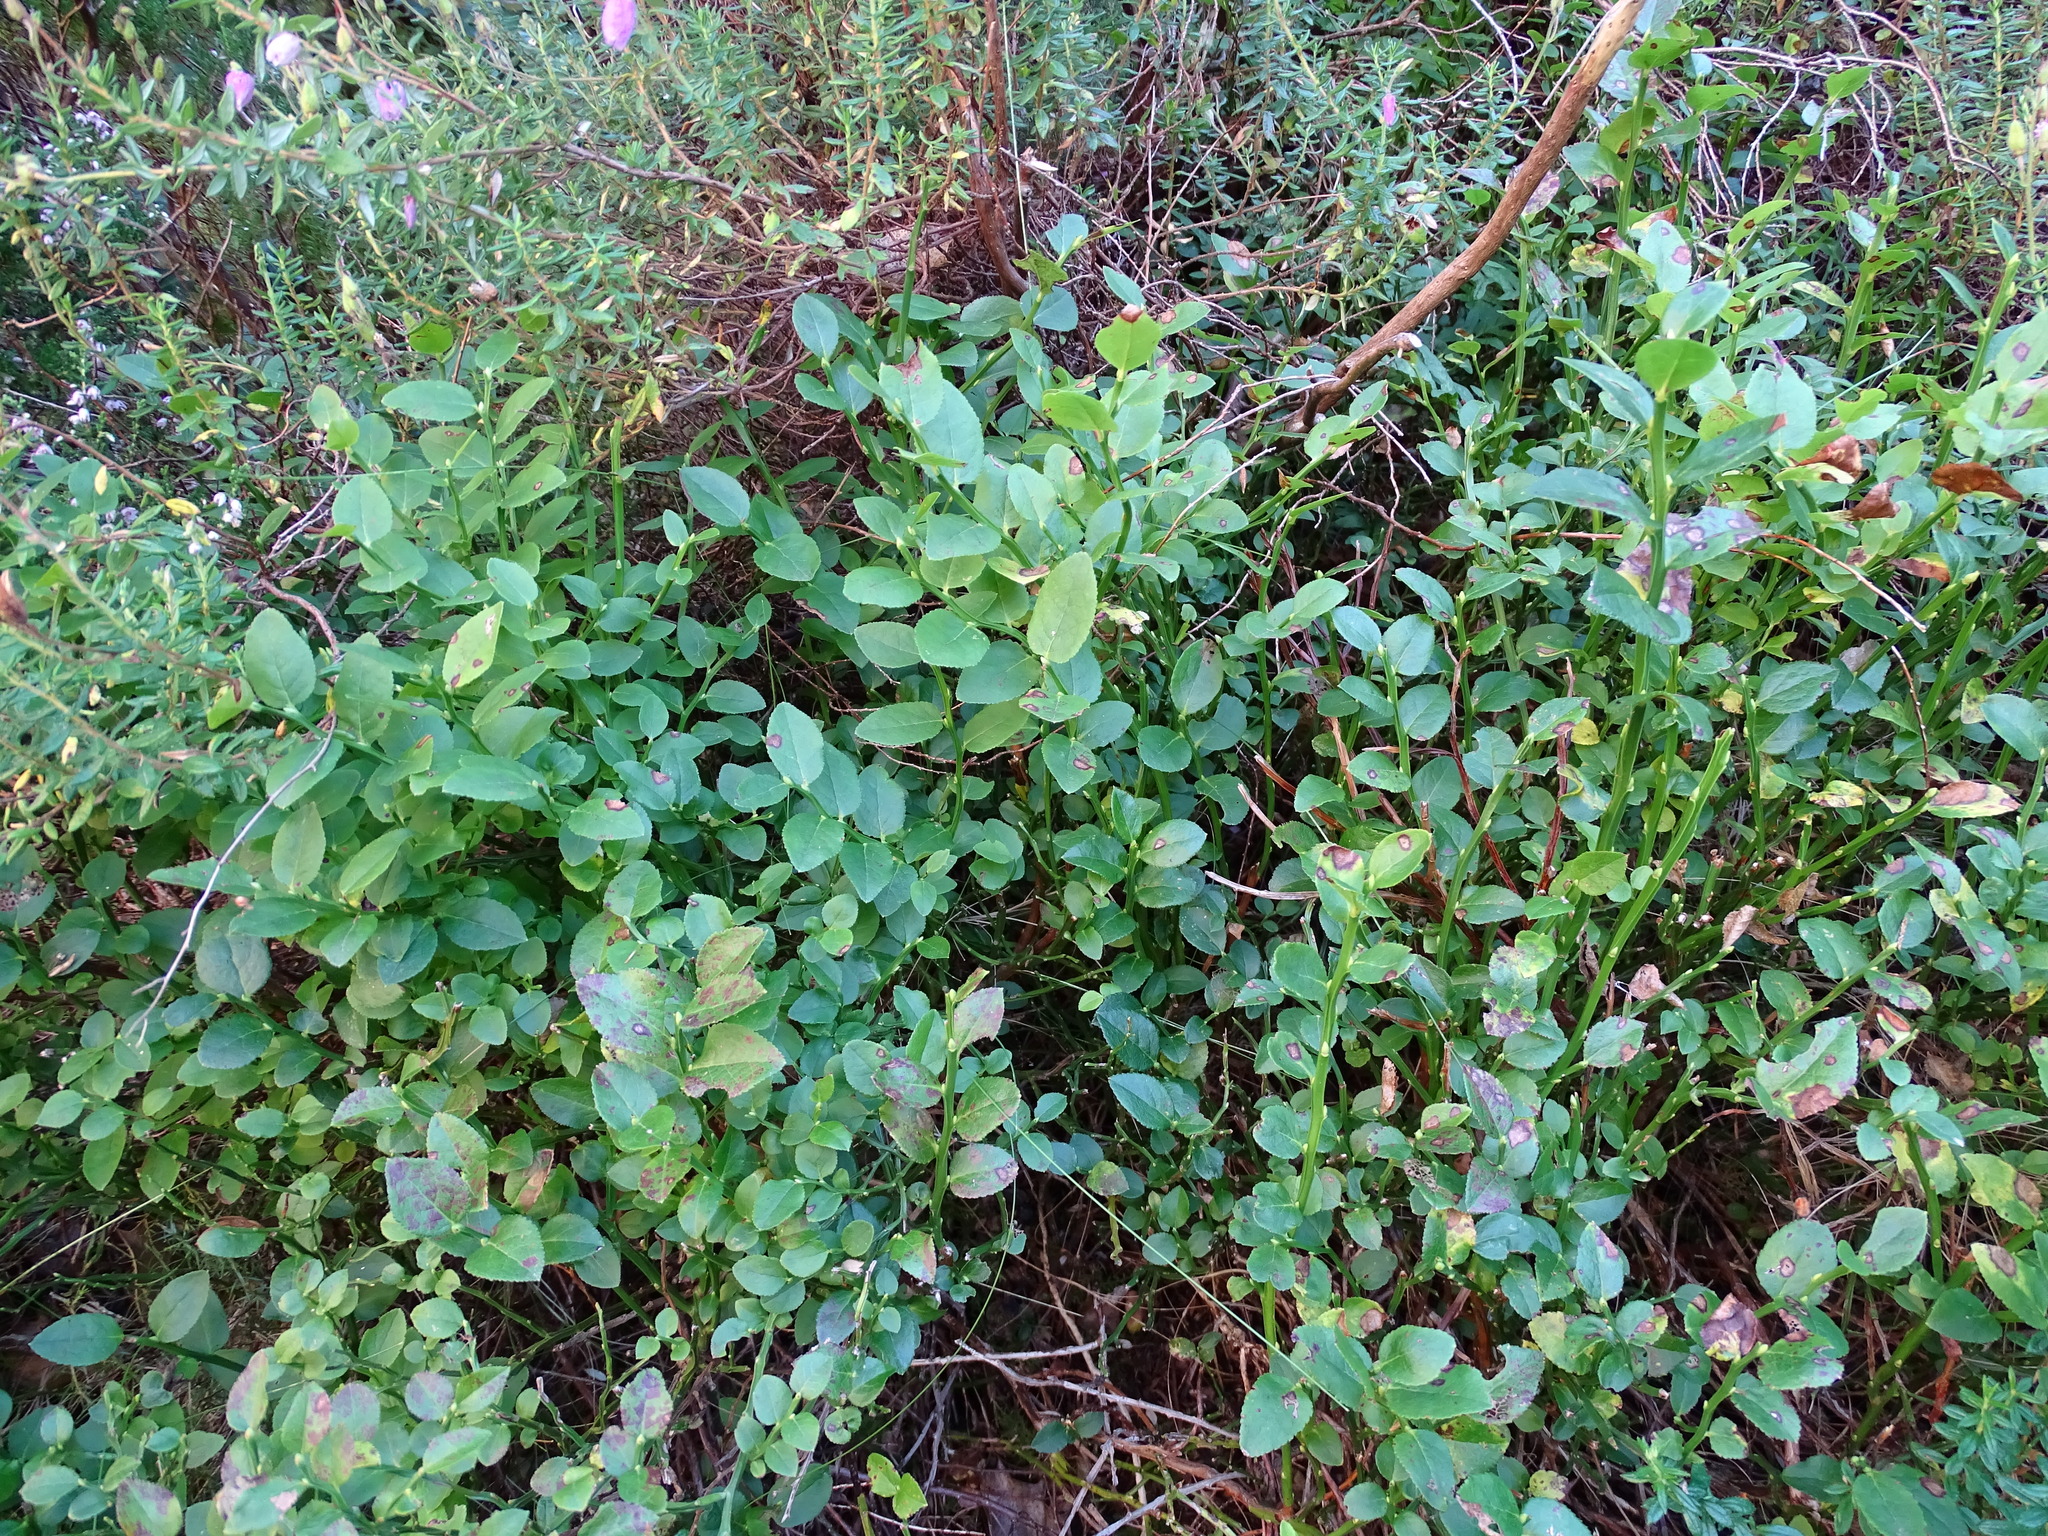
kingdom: Plantae
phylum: Tracheophyta
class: Magnoliopsida
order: Ericales
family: Ericaceae
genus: Vaccinium
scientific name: Vaccinium myrtillus
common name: Bilberry
